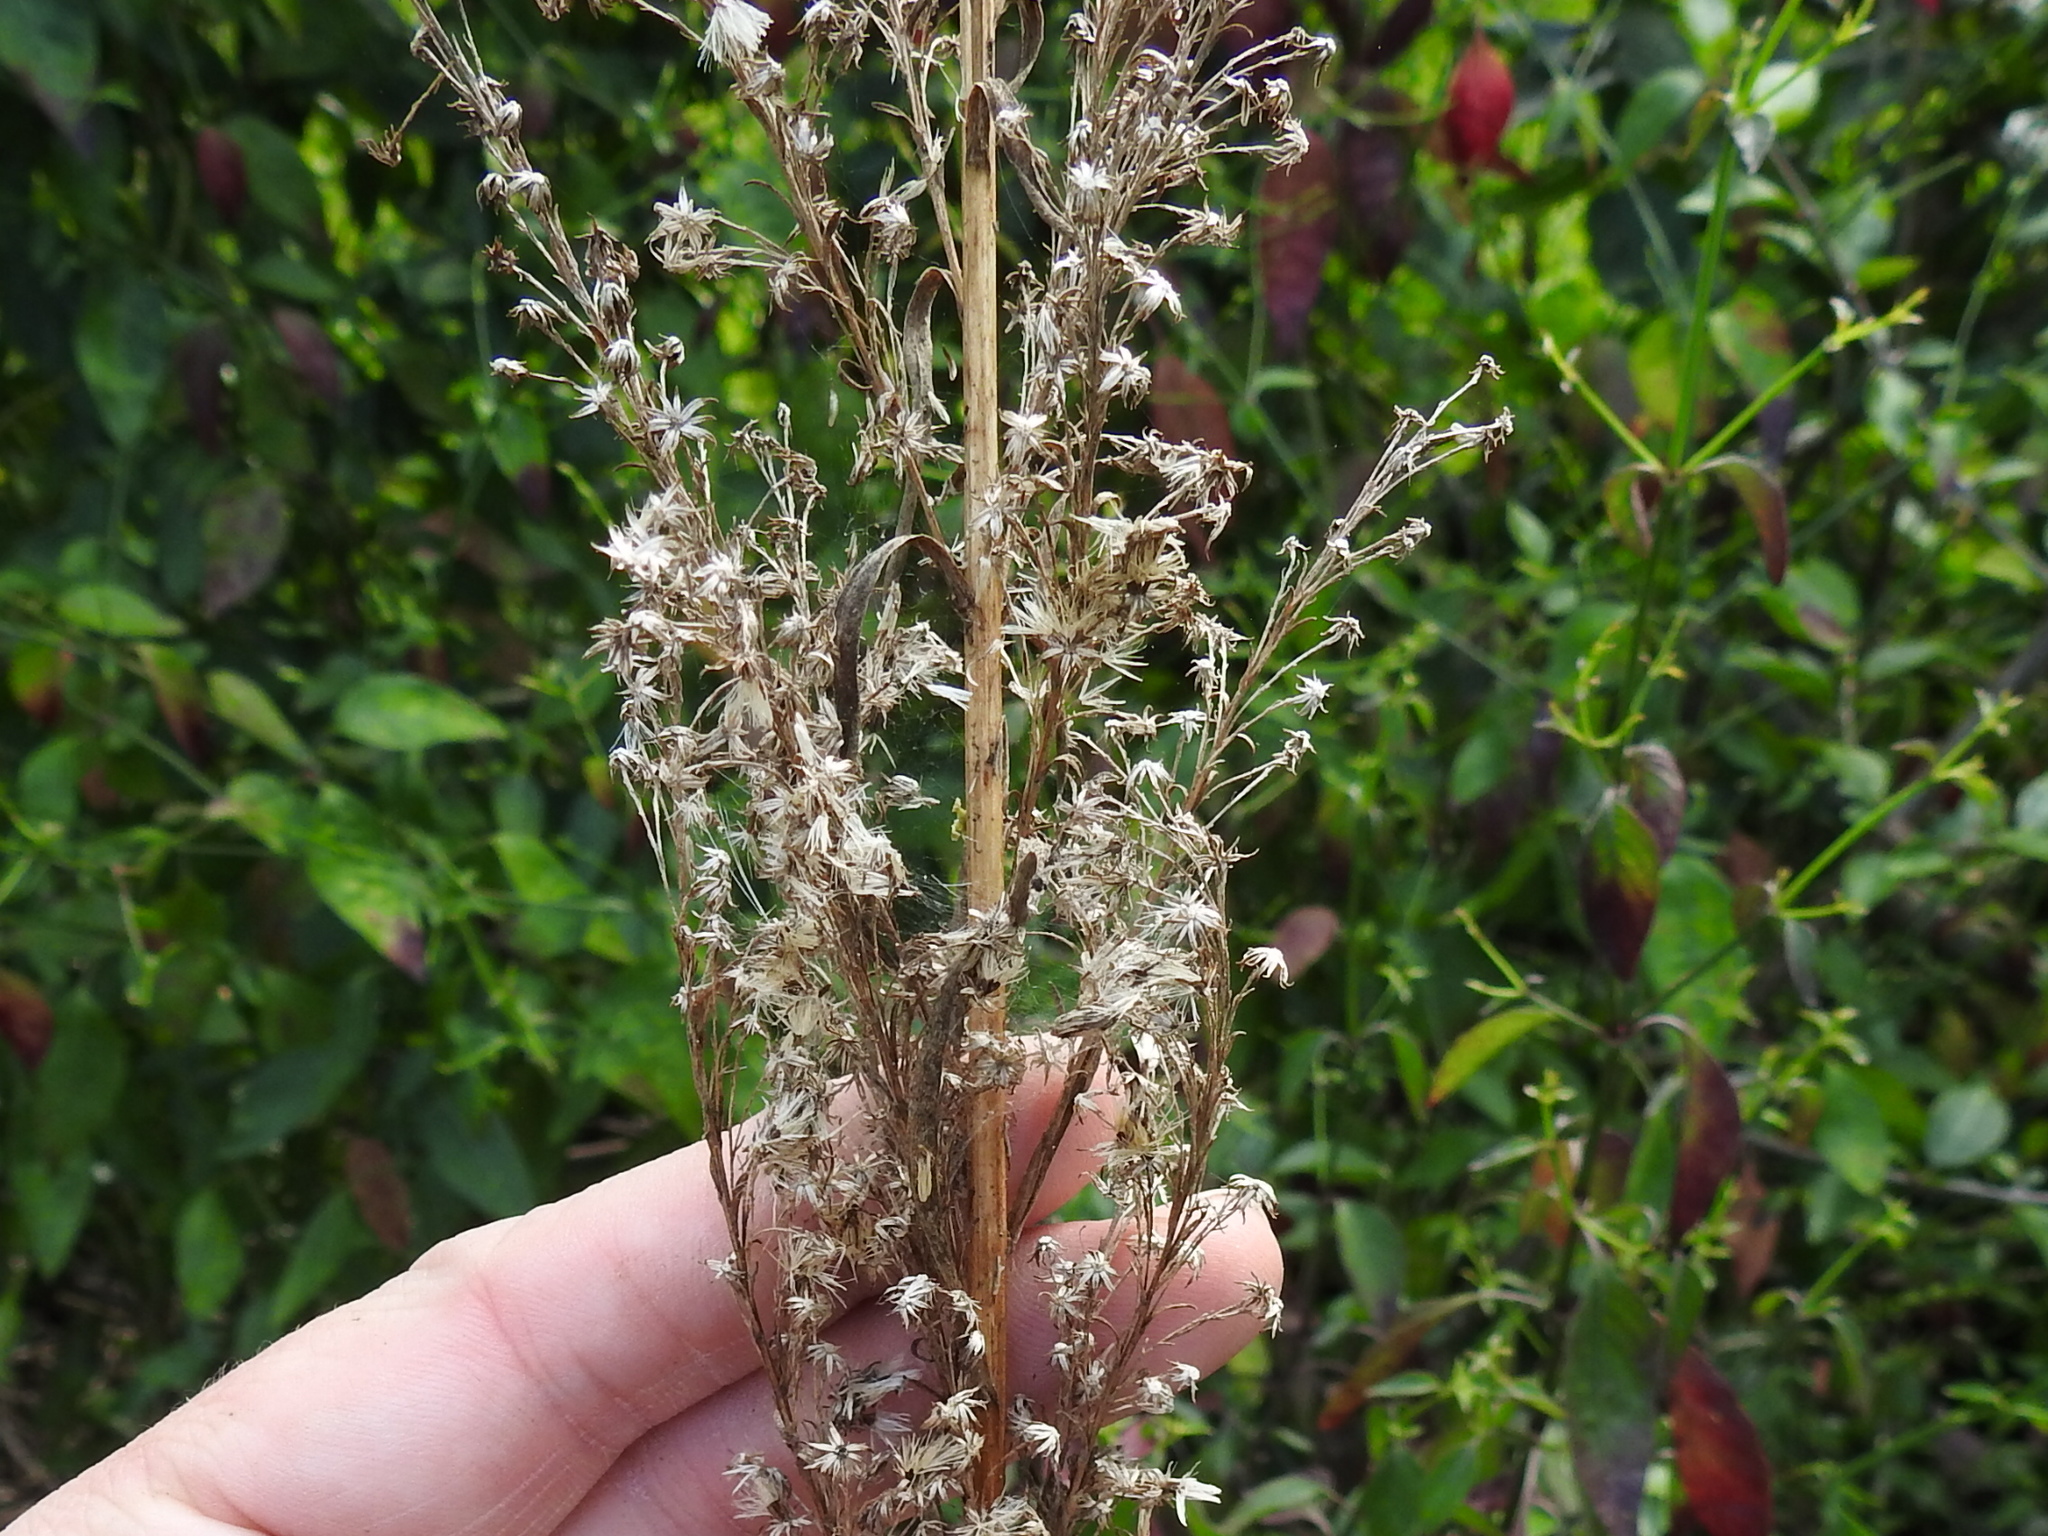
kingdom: Plantae
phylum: Tracheophyta
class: Magnoliopsida
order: Asterales
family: Asteraceae
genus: Solidago
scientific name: Solidago mexicana
